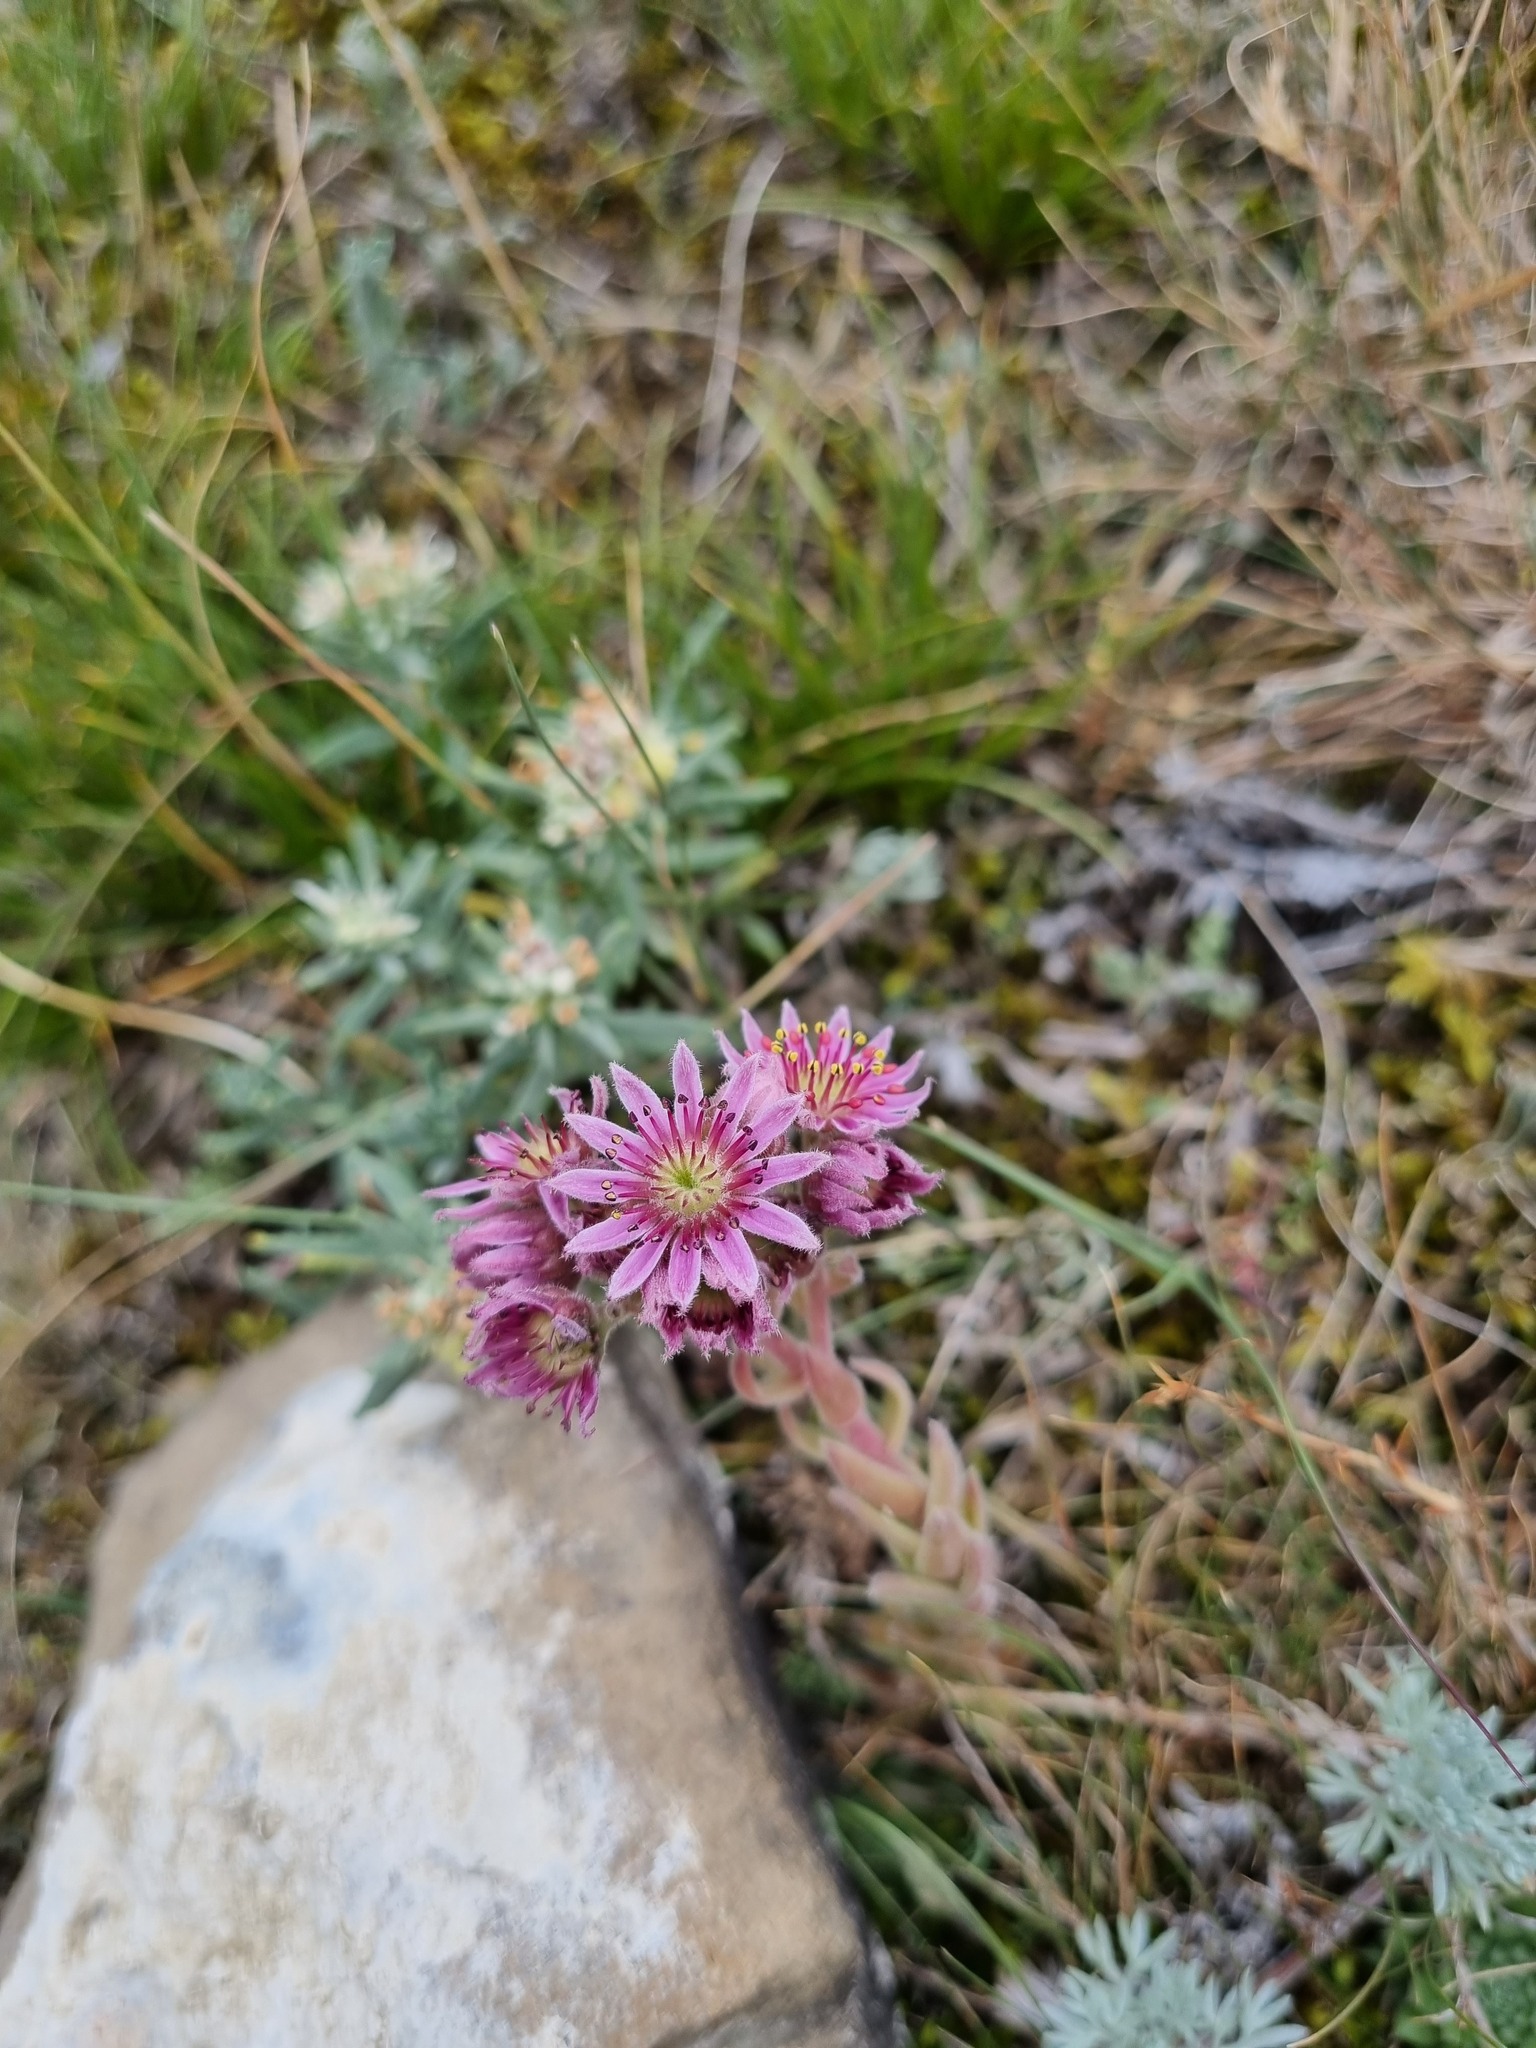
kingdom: Plantae
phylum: Tracheophyta
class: Magnoliopsida
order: Saxifragales
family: Crassulaceae
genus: Sempervivum
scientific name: Sempervivum caucasicum
